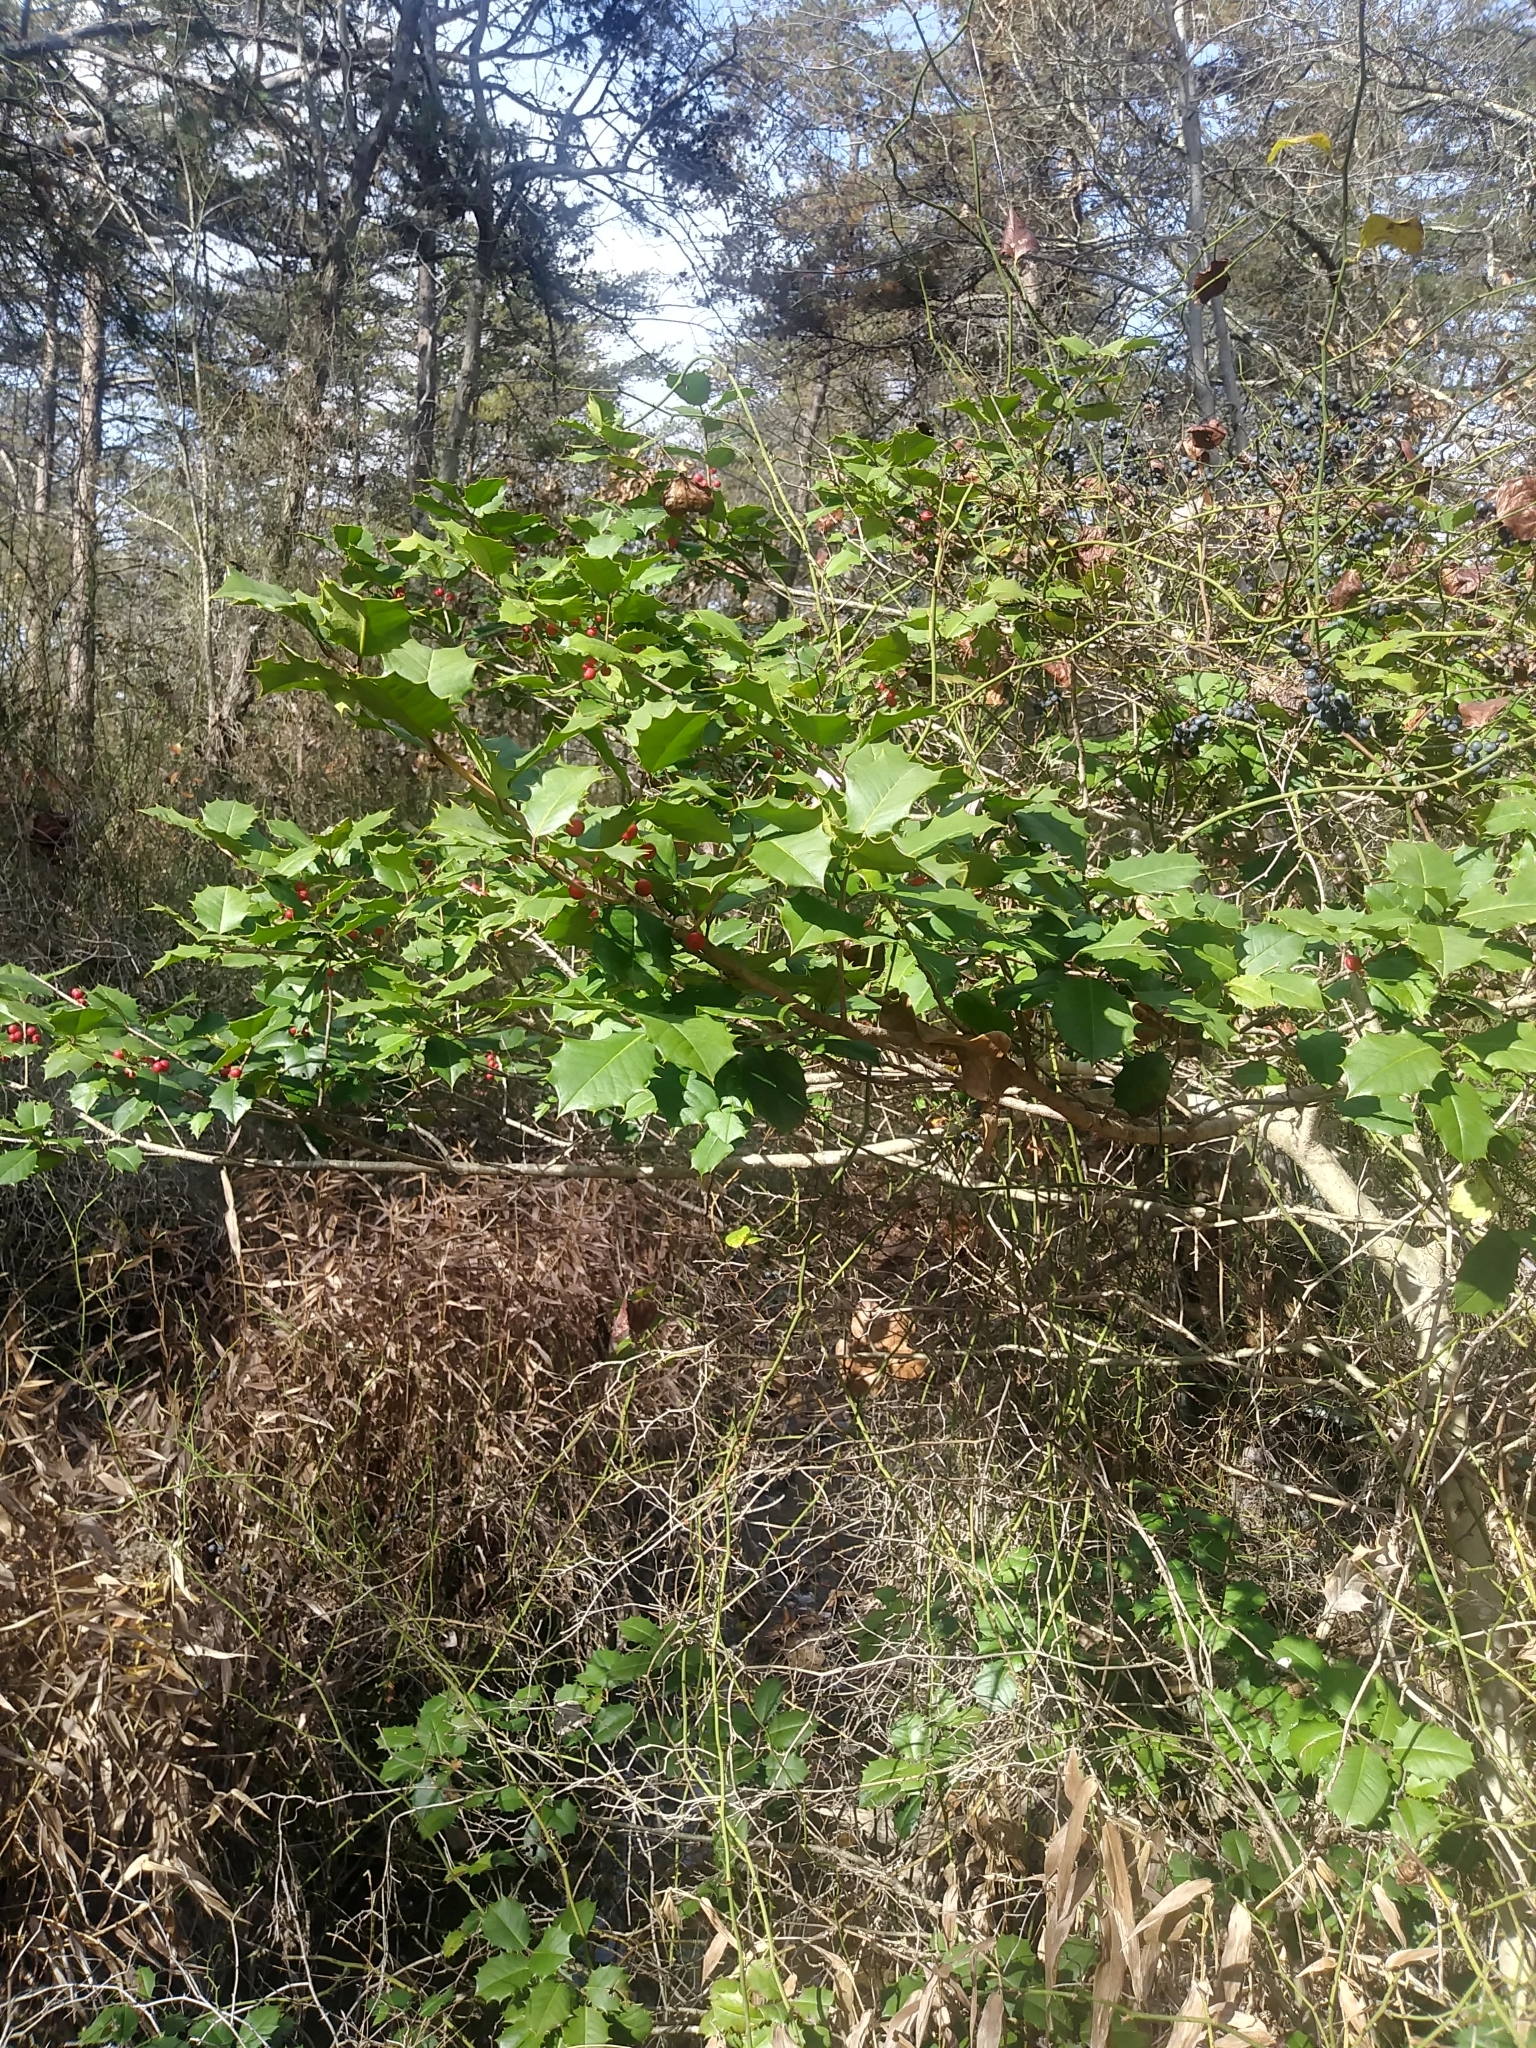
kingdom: Plantae
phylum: Tracheophyta
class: Magnoliopsida
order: Aquifoliales
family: Aquifoliaceae
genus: Ilex
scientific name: Ilex opaca
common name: American holly
